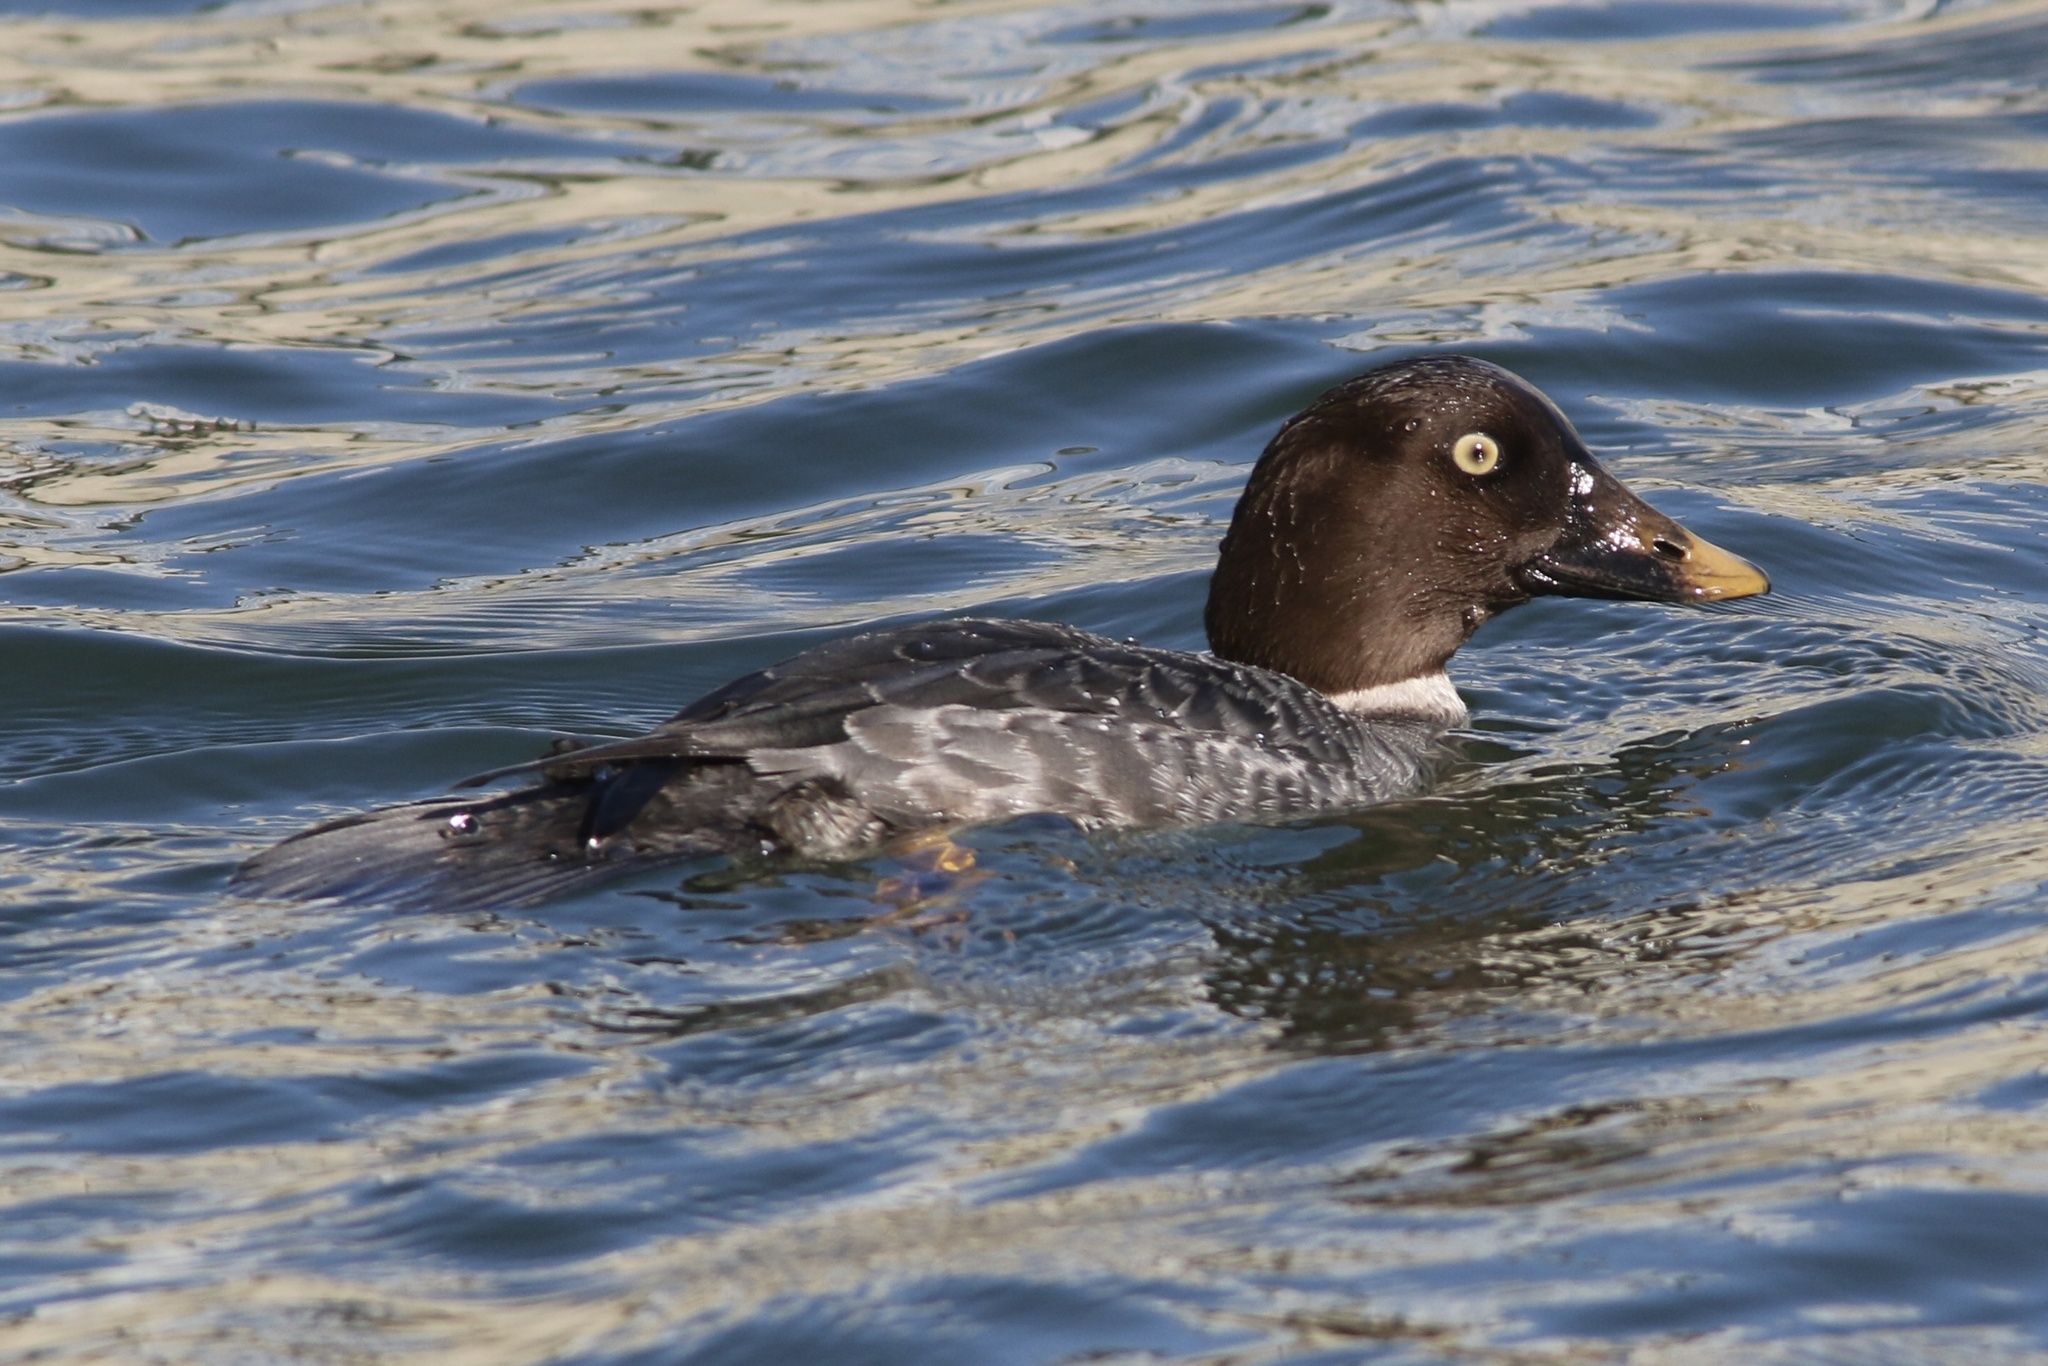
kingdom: Animalia
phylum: Chordata
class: Aves
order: Anseriformes
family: Anatidae
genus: Bucephala
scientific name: Bucephala clangula
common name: Common goldeneye
